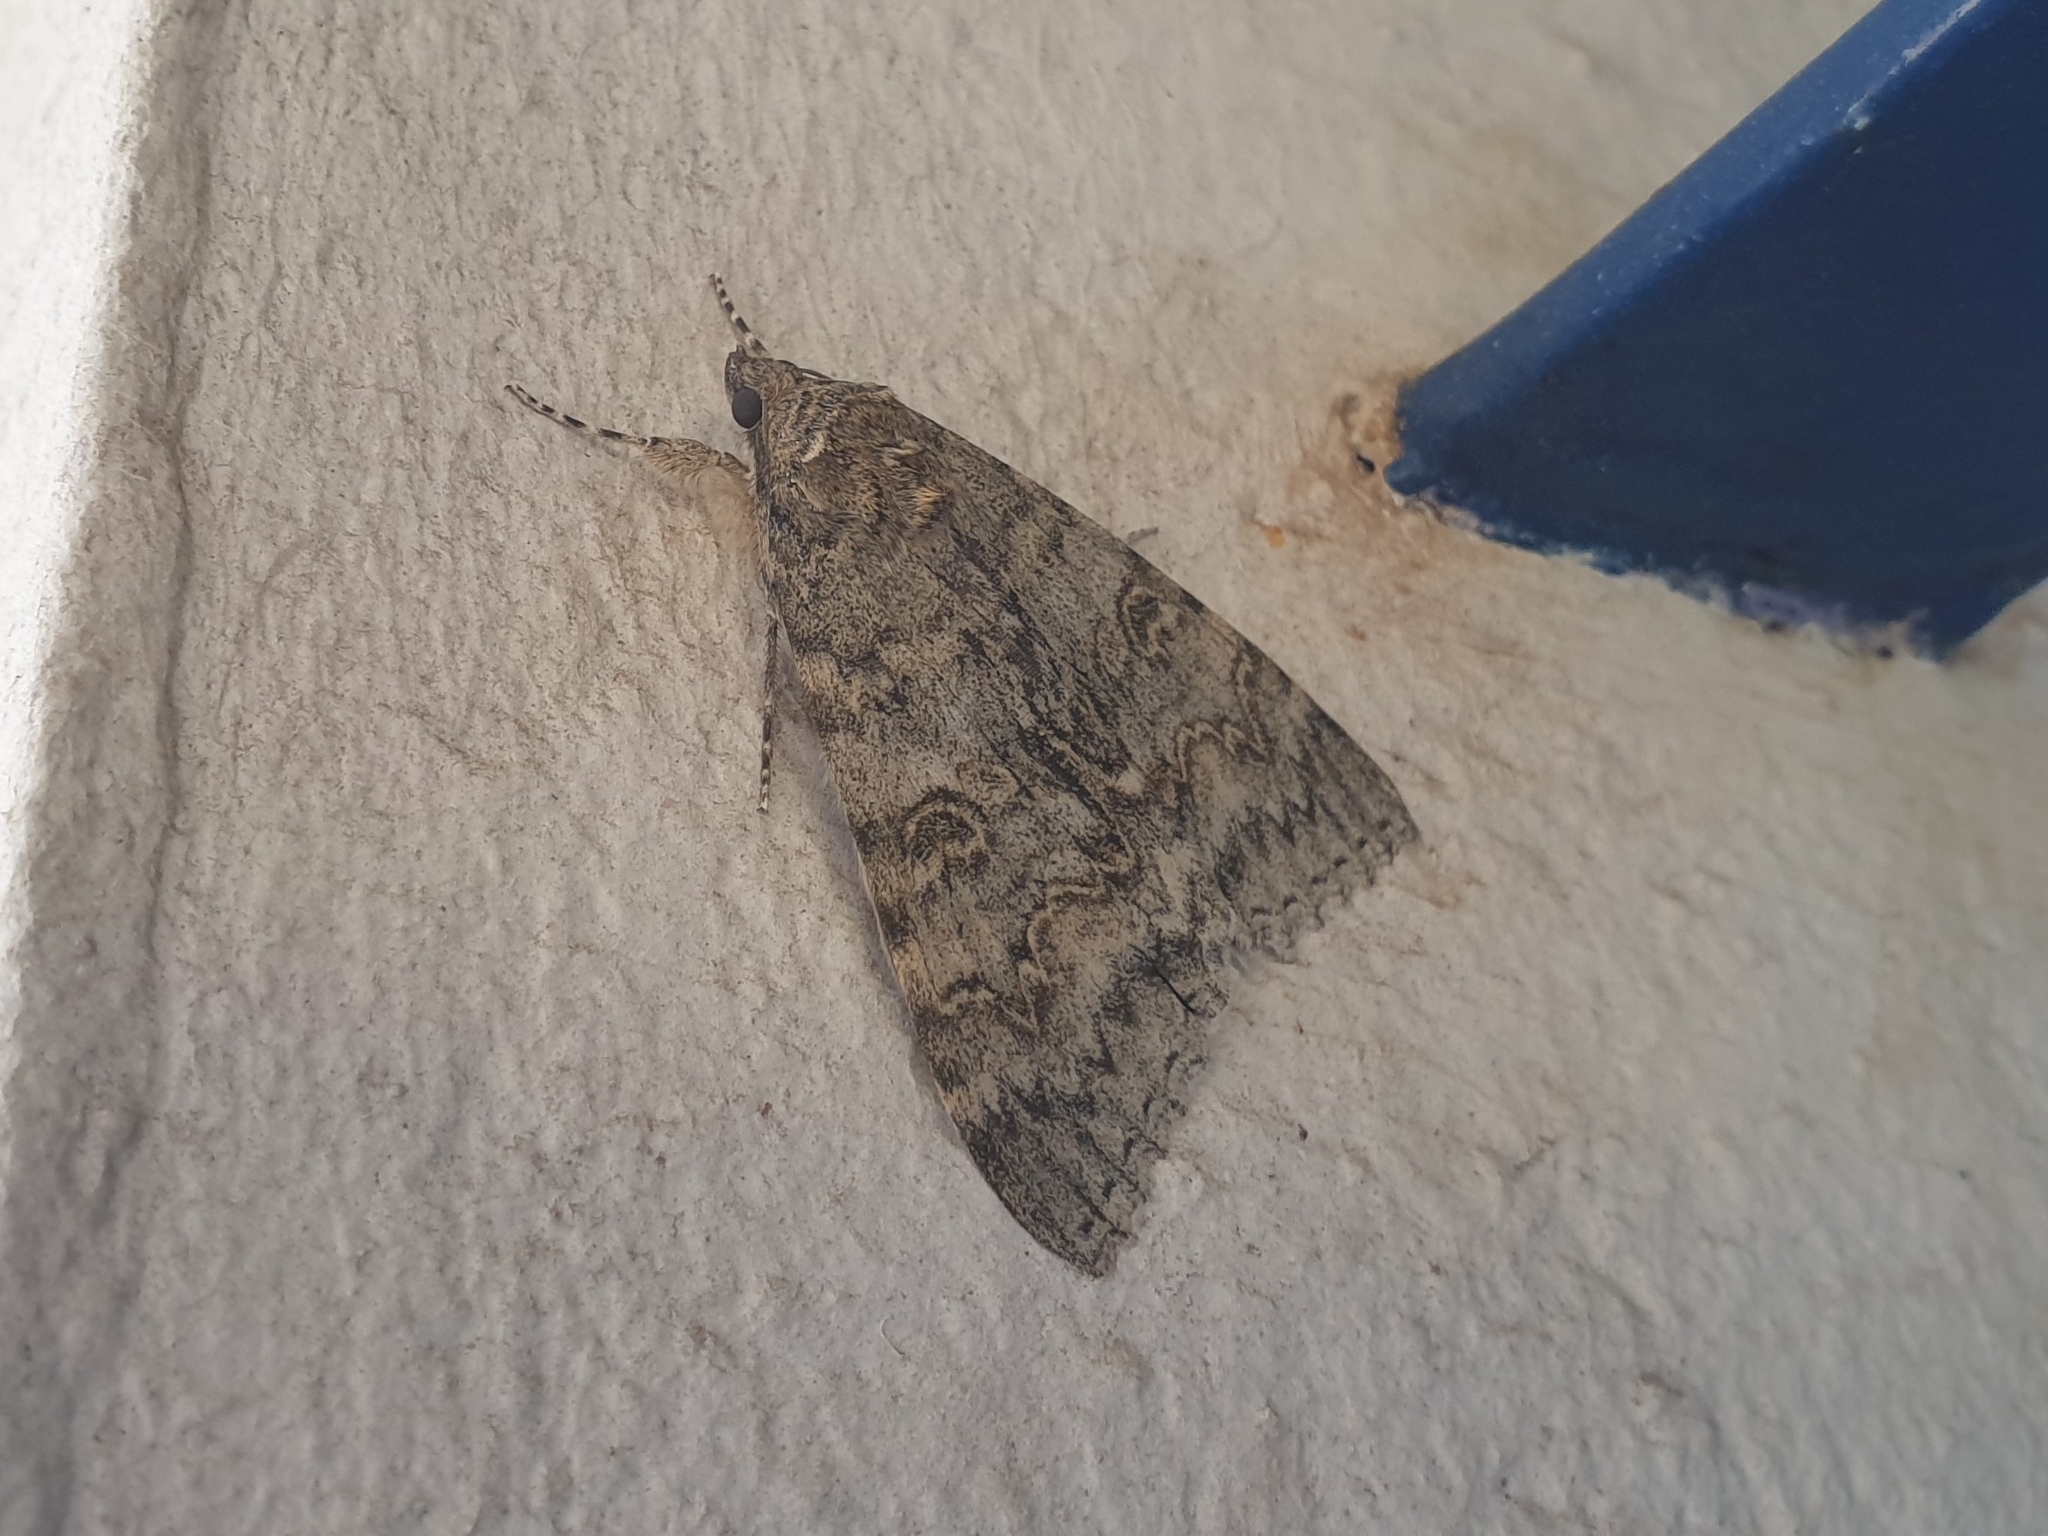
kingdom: Animalia
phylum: Arthropoda
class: Insecta
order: Lepidoptera
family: Erebidae
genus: Catocala
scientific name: Catocala nupta
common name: Red underwing
